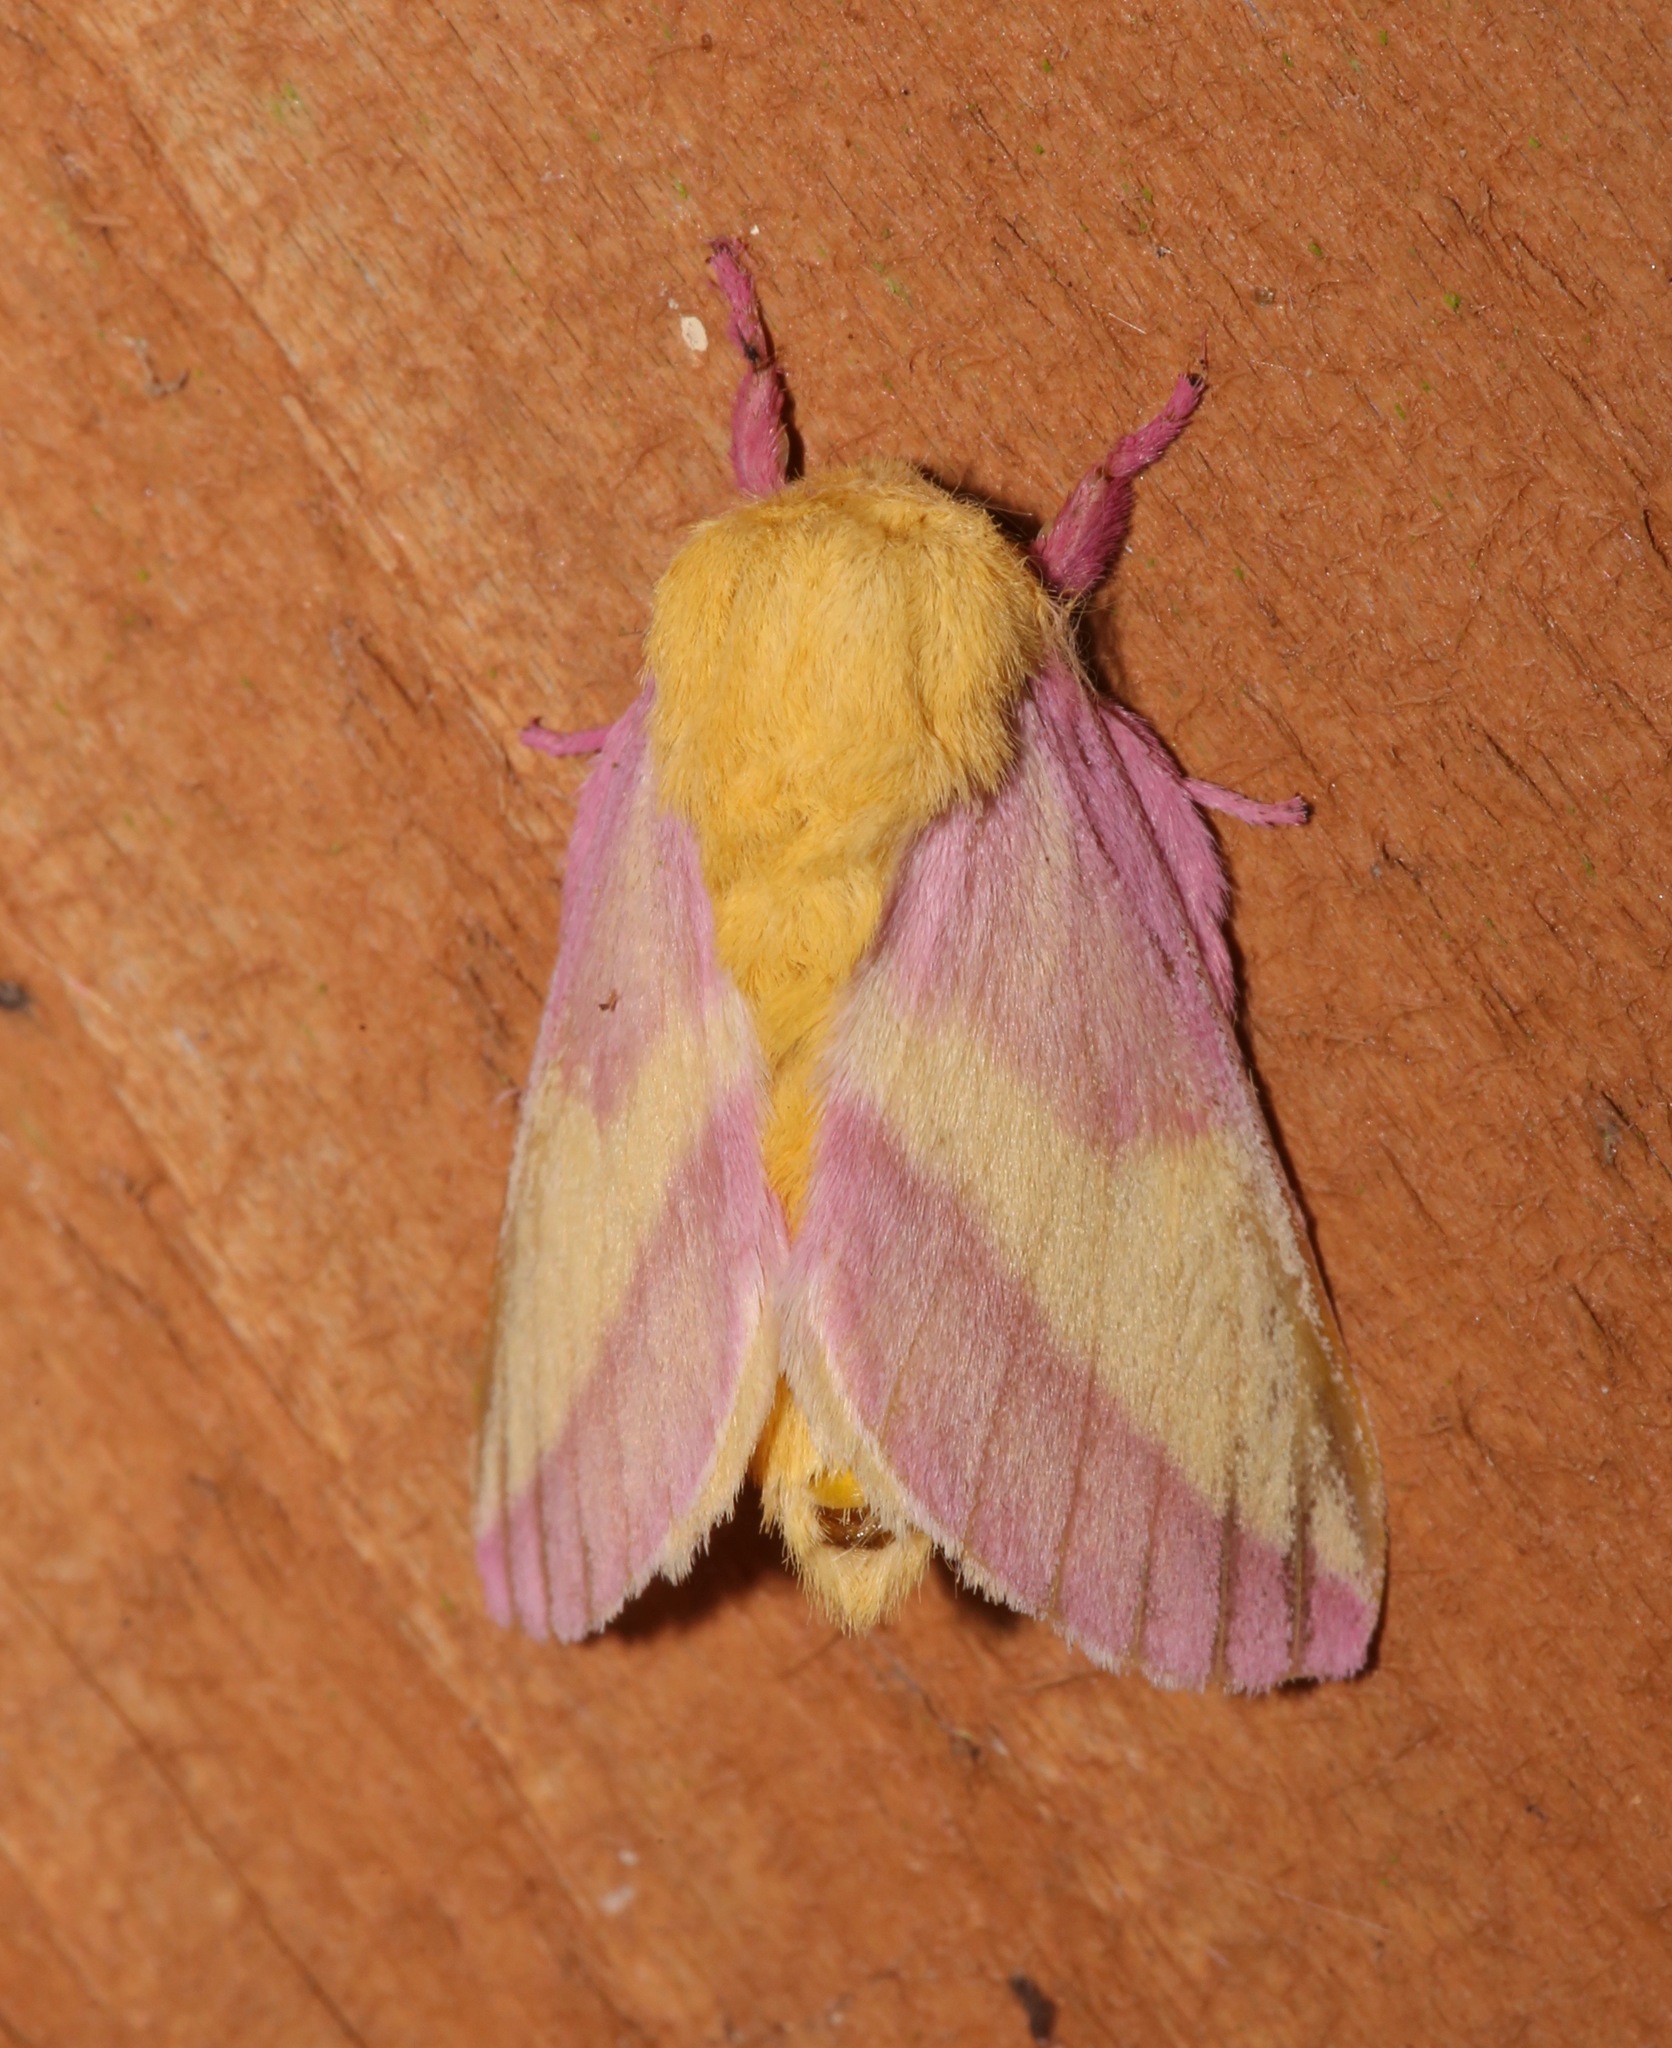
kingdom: Animalia
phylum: Arthropoda
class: Insecta
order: Lepidoptera
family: Saturniidae
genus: Dryocampa
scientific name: Dryocampa rubicunda
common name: Rosy maple moth
